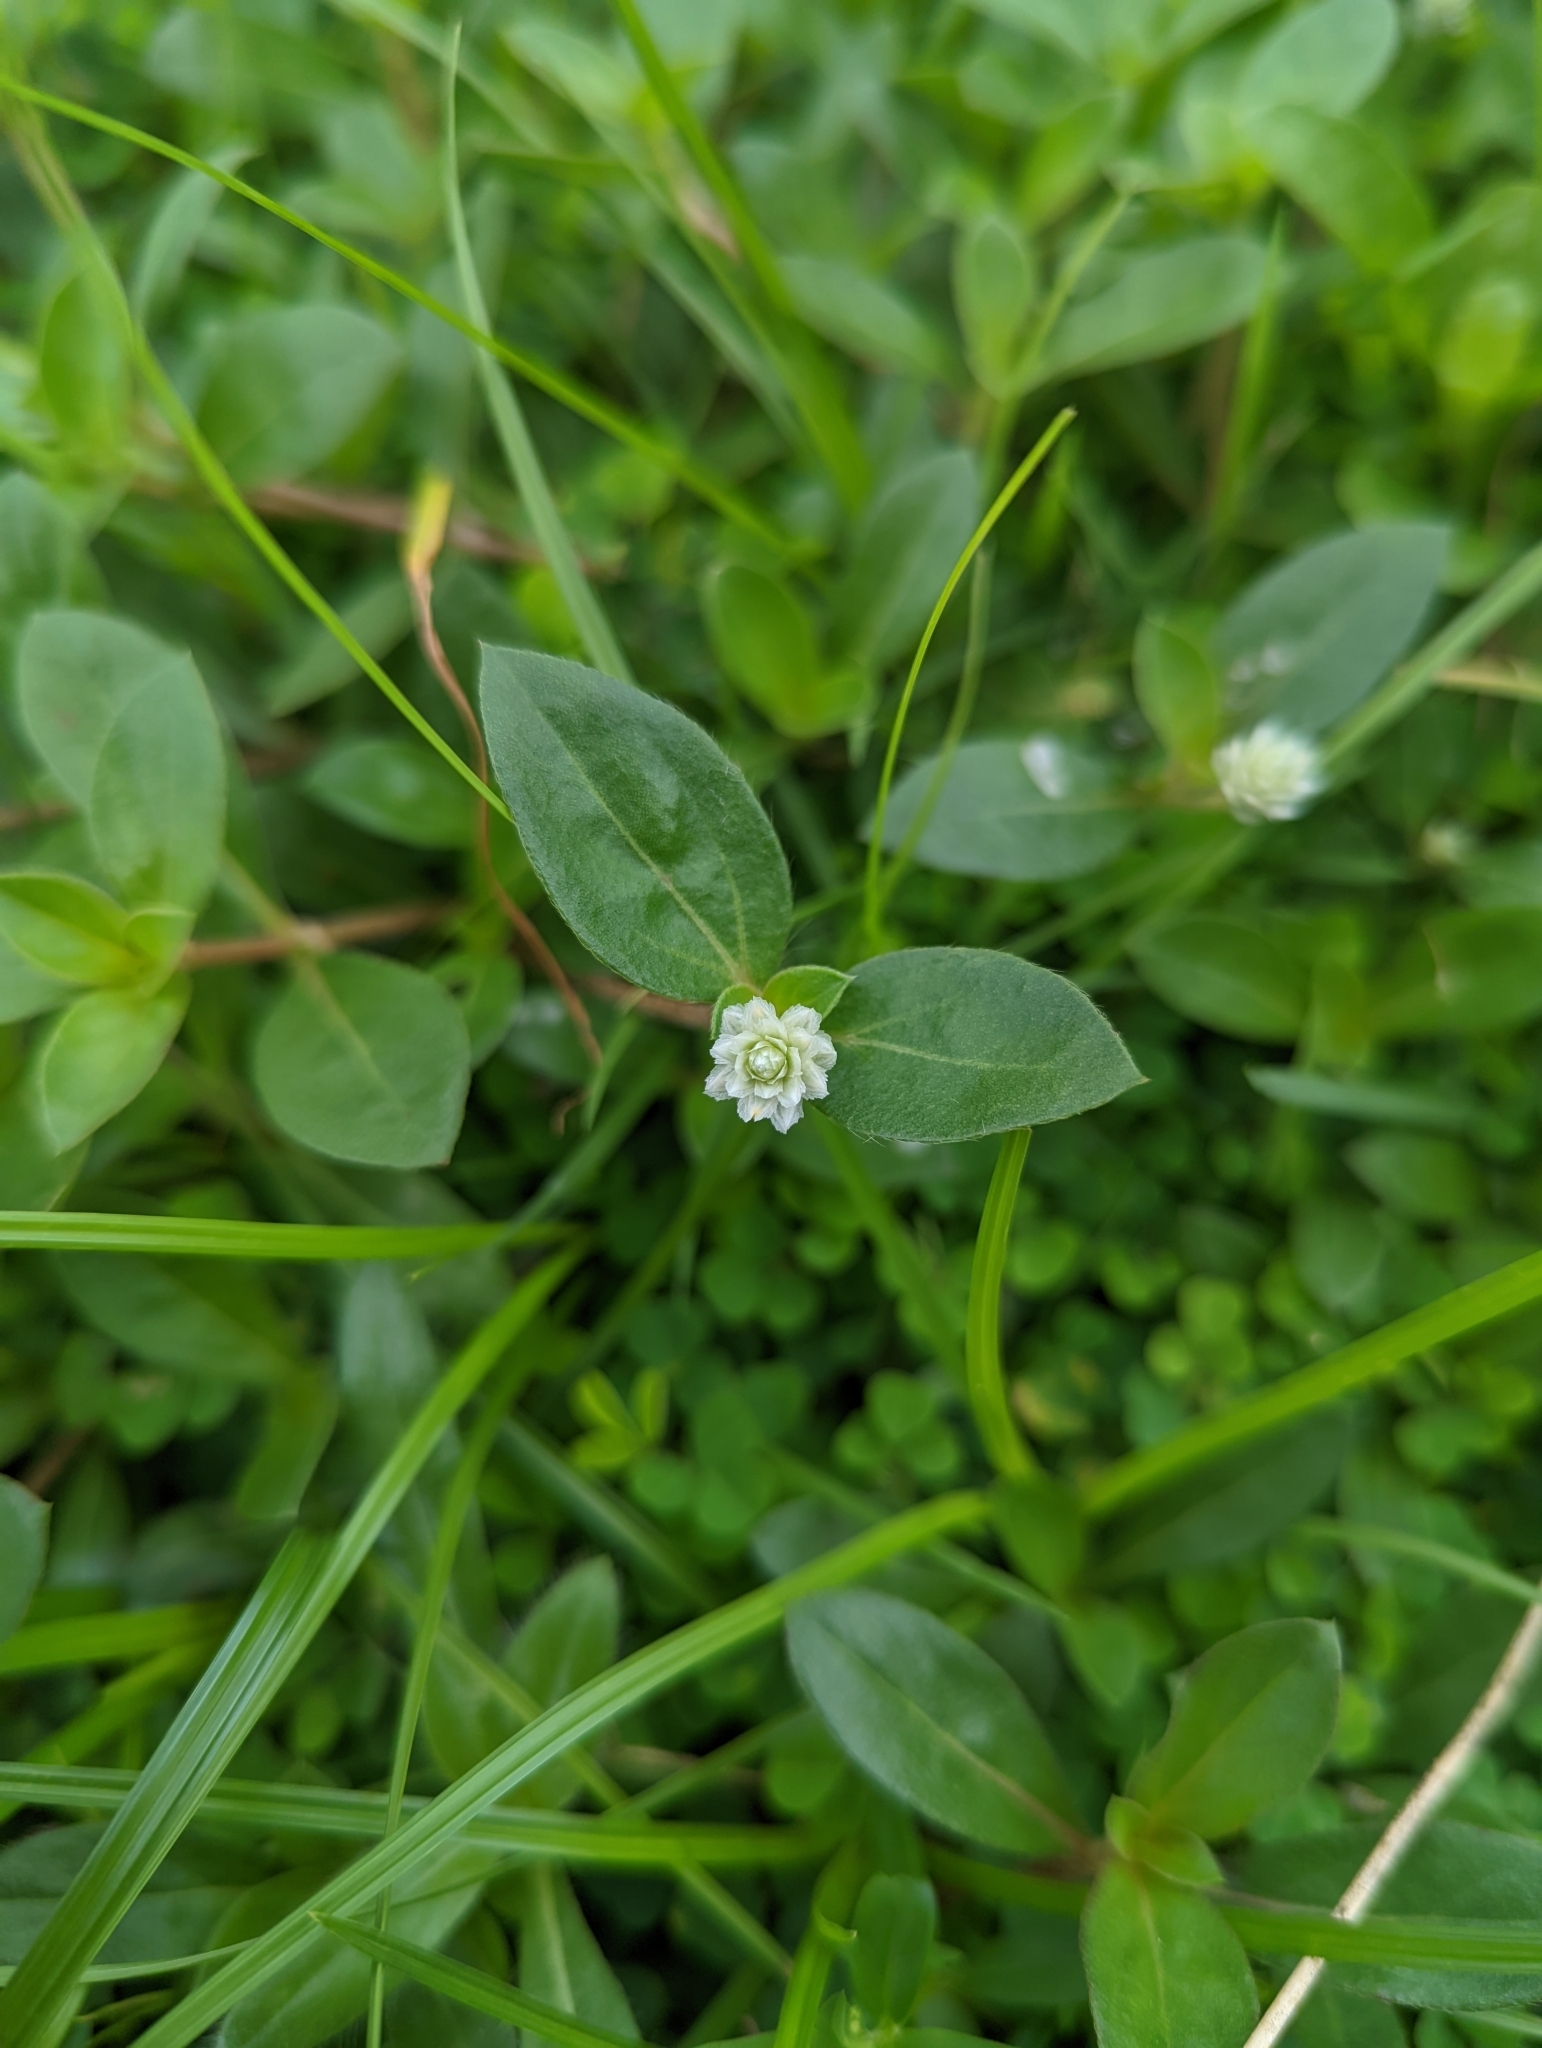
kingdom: Plantae
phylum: Tracheophyta
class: Magnoliopsida
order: Caryophyllales
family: Amaranthaceae
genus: Gomphrena
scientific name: Gomphrena celosioides
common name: Gomphrena-weed
